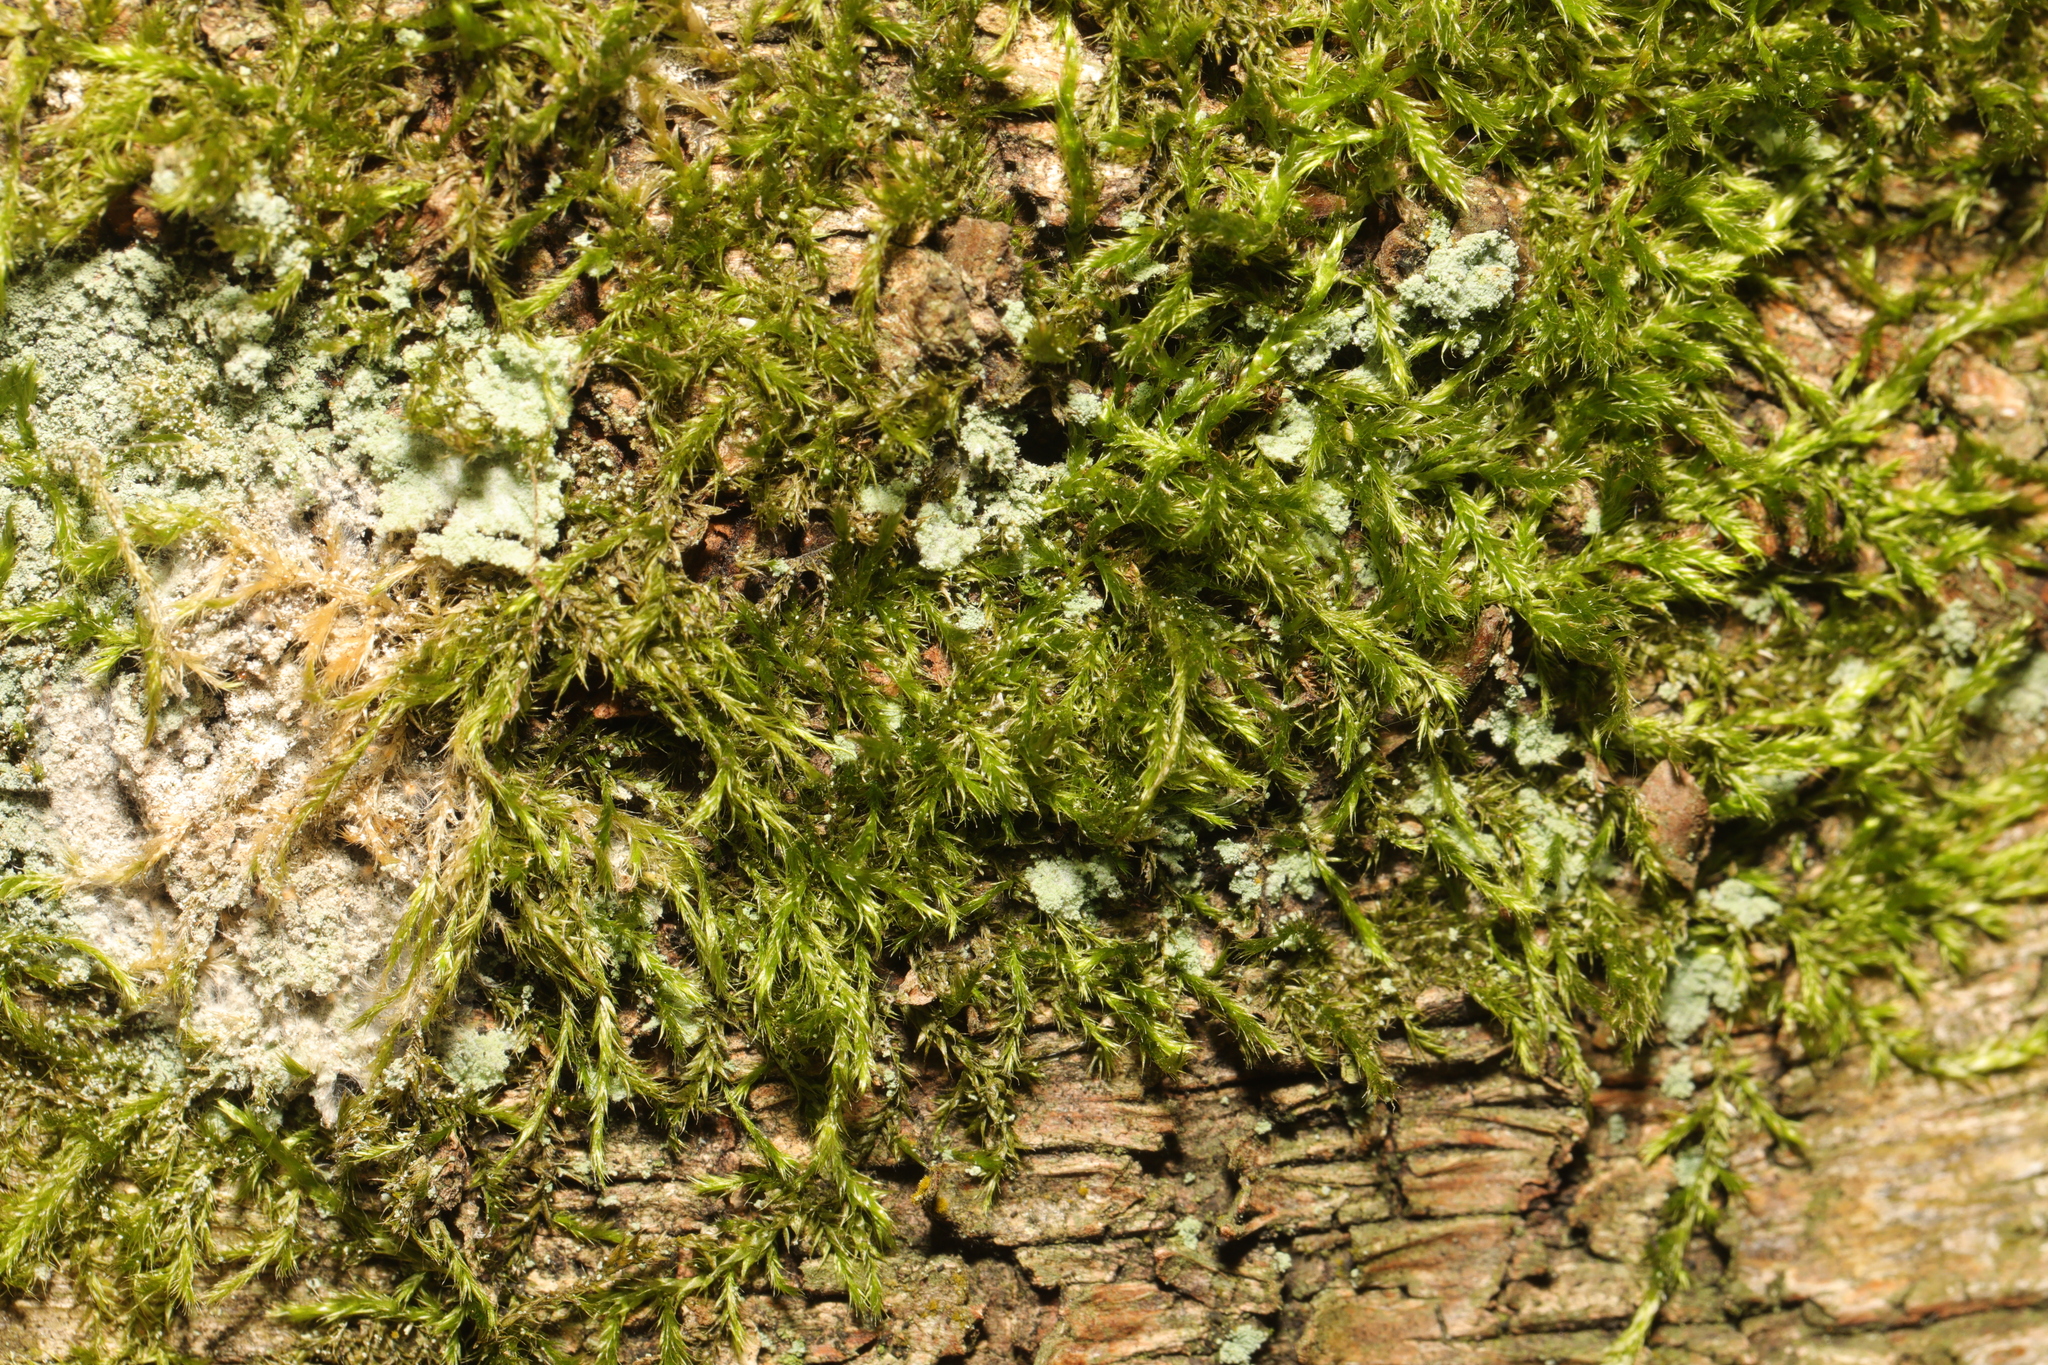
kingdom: Plantae
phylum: Bryophyta
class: Bryopsida
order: Hypnales
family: Hypnaceae
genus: Hypnum
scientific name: Hypnum cupressiforme
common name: Cypress-leaved plait-moss
